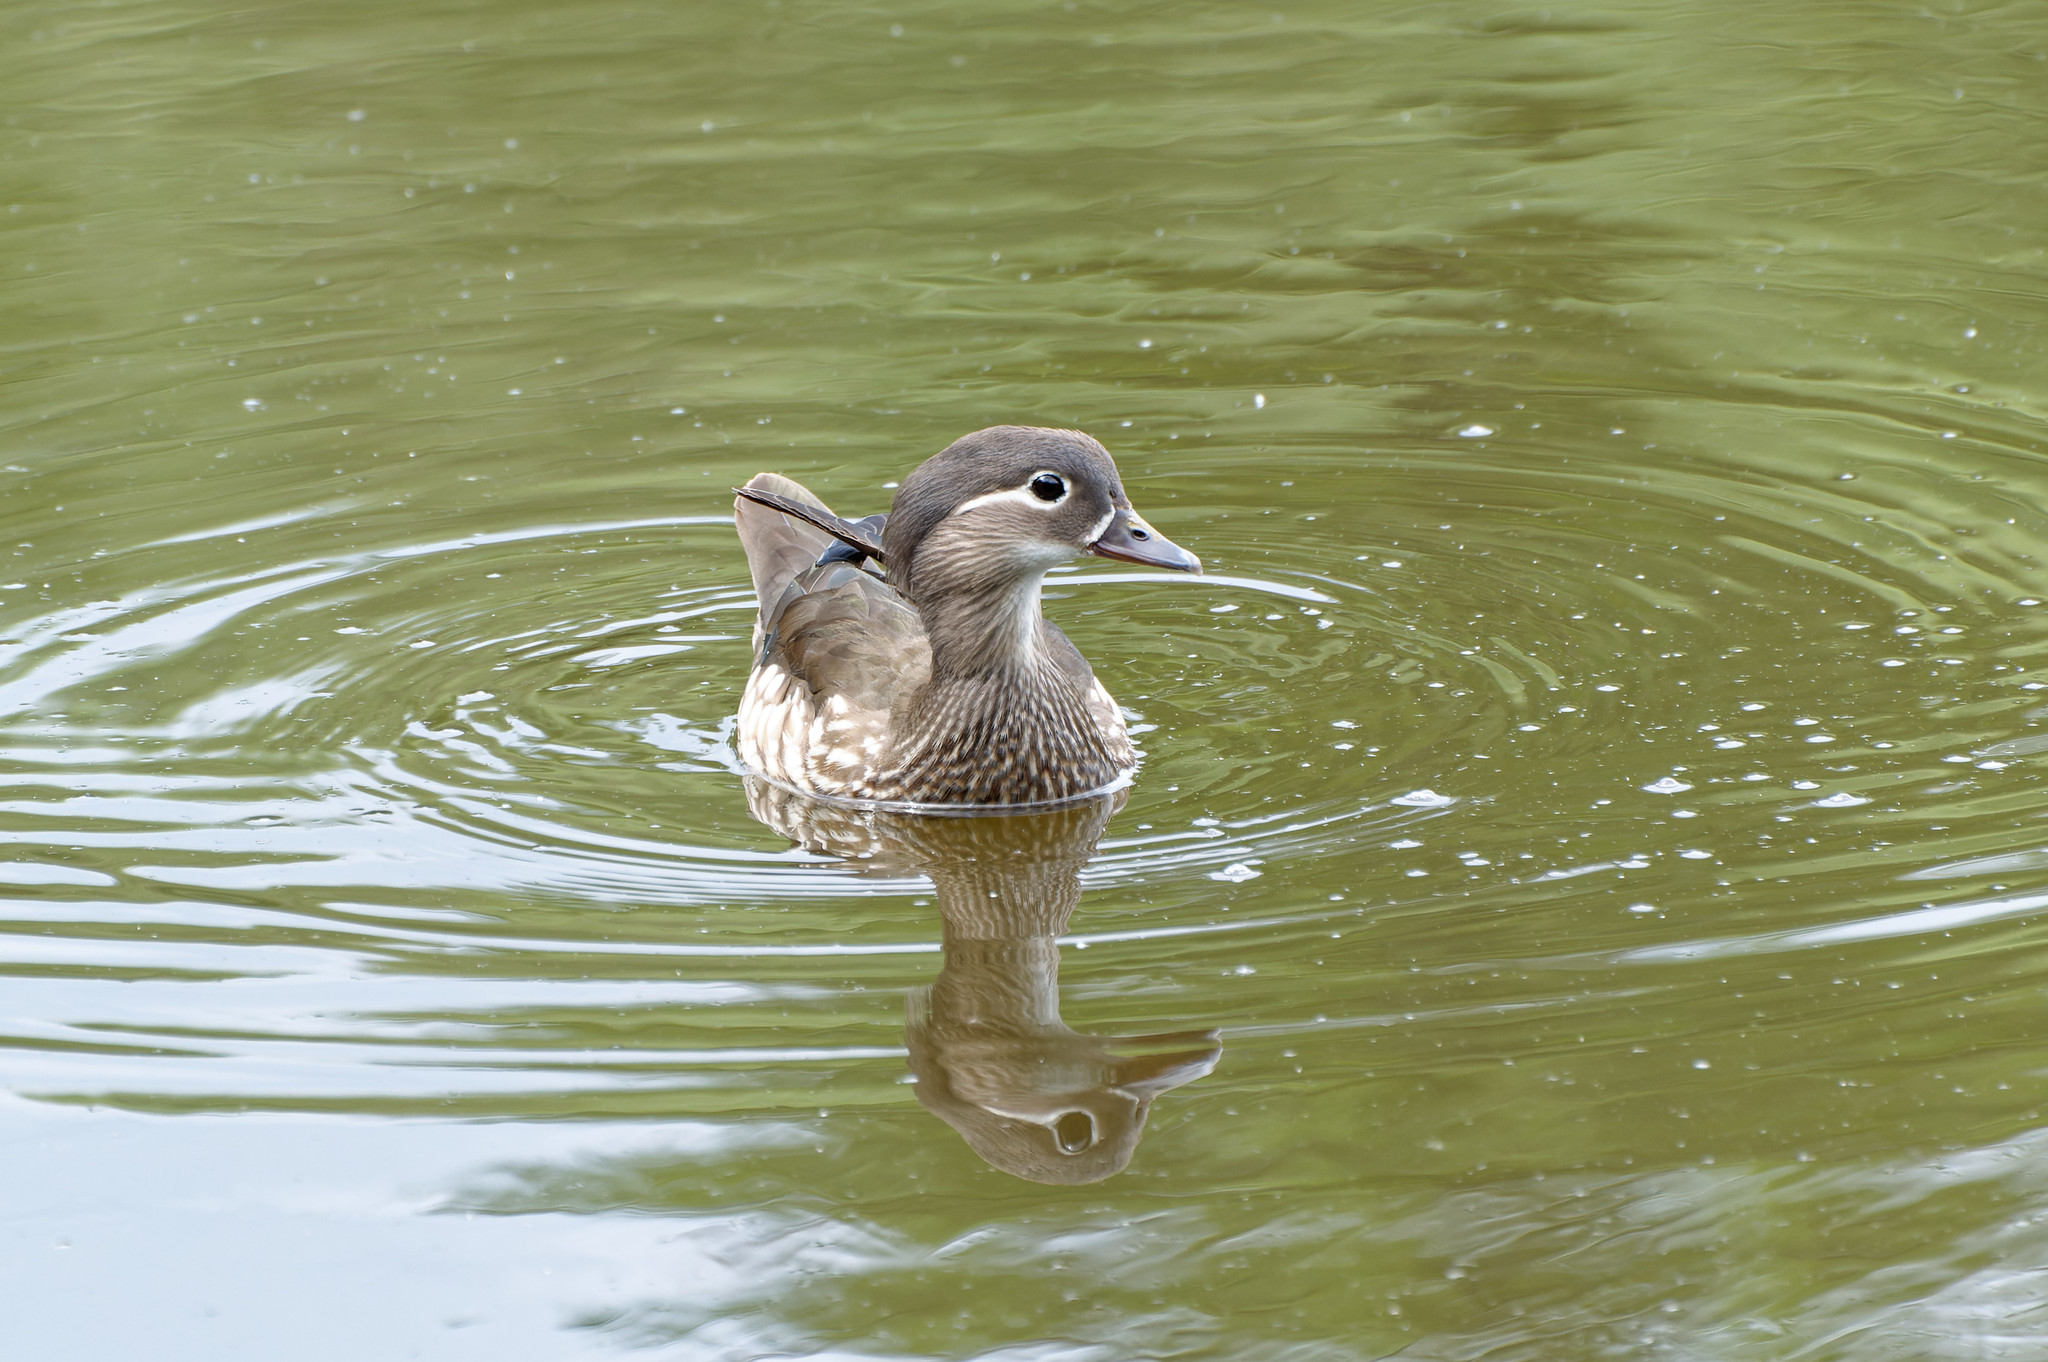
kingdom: Animalia
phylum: Chordata
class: Aves
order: Anseriformes
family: Anatidae
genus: Aix
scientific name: Aix galericulata
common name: Mandarin duck
